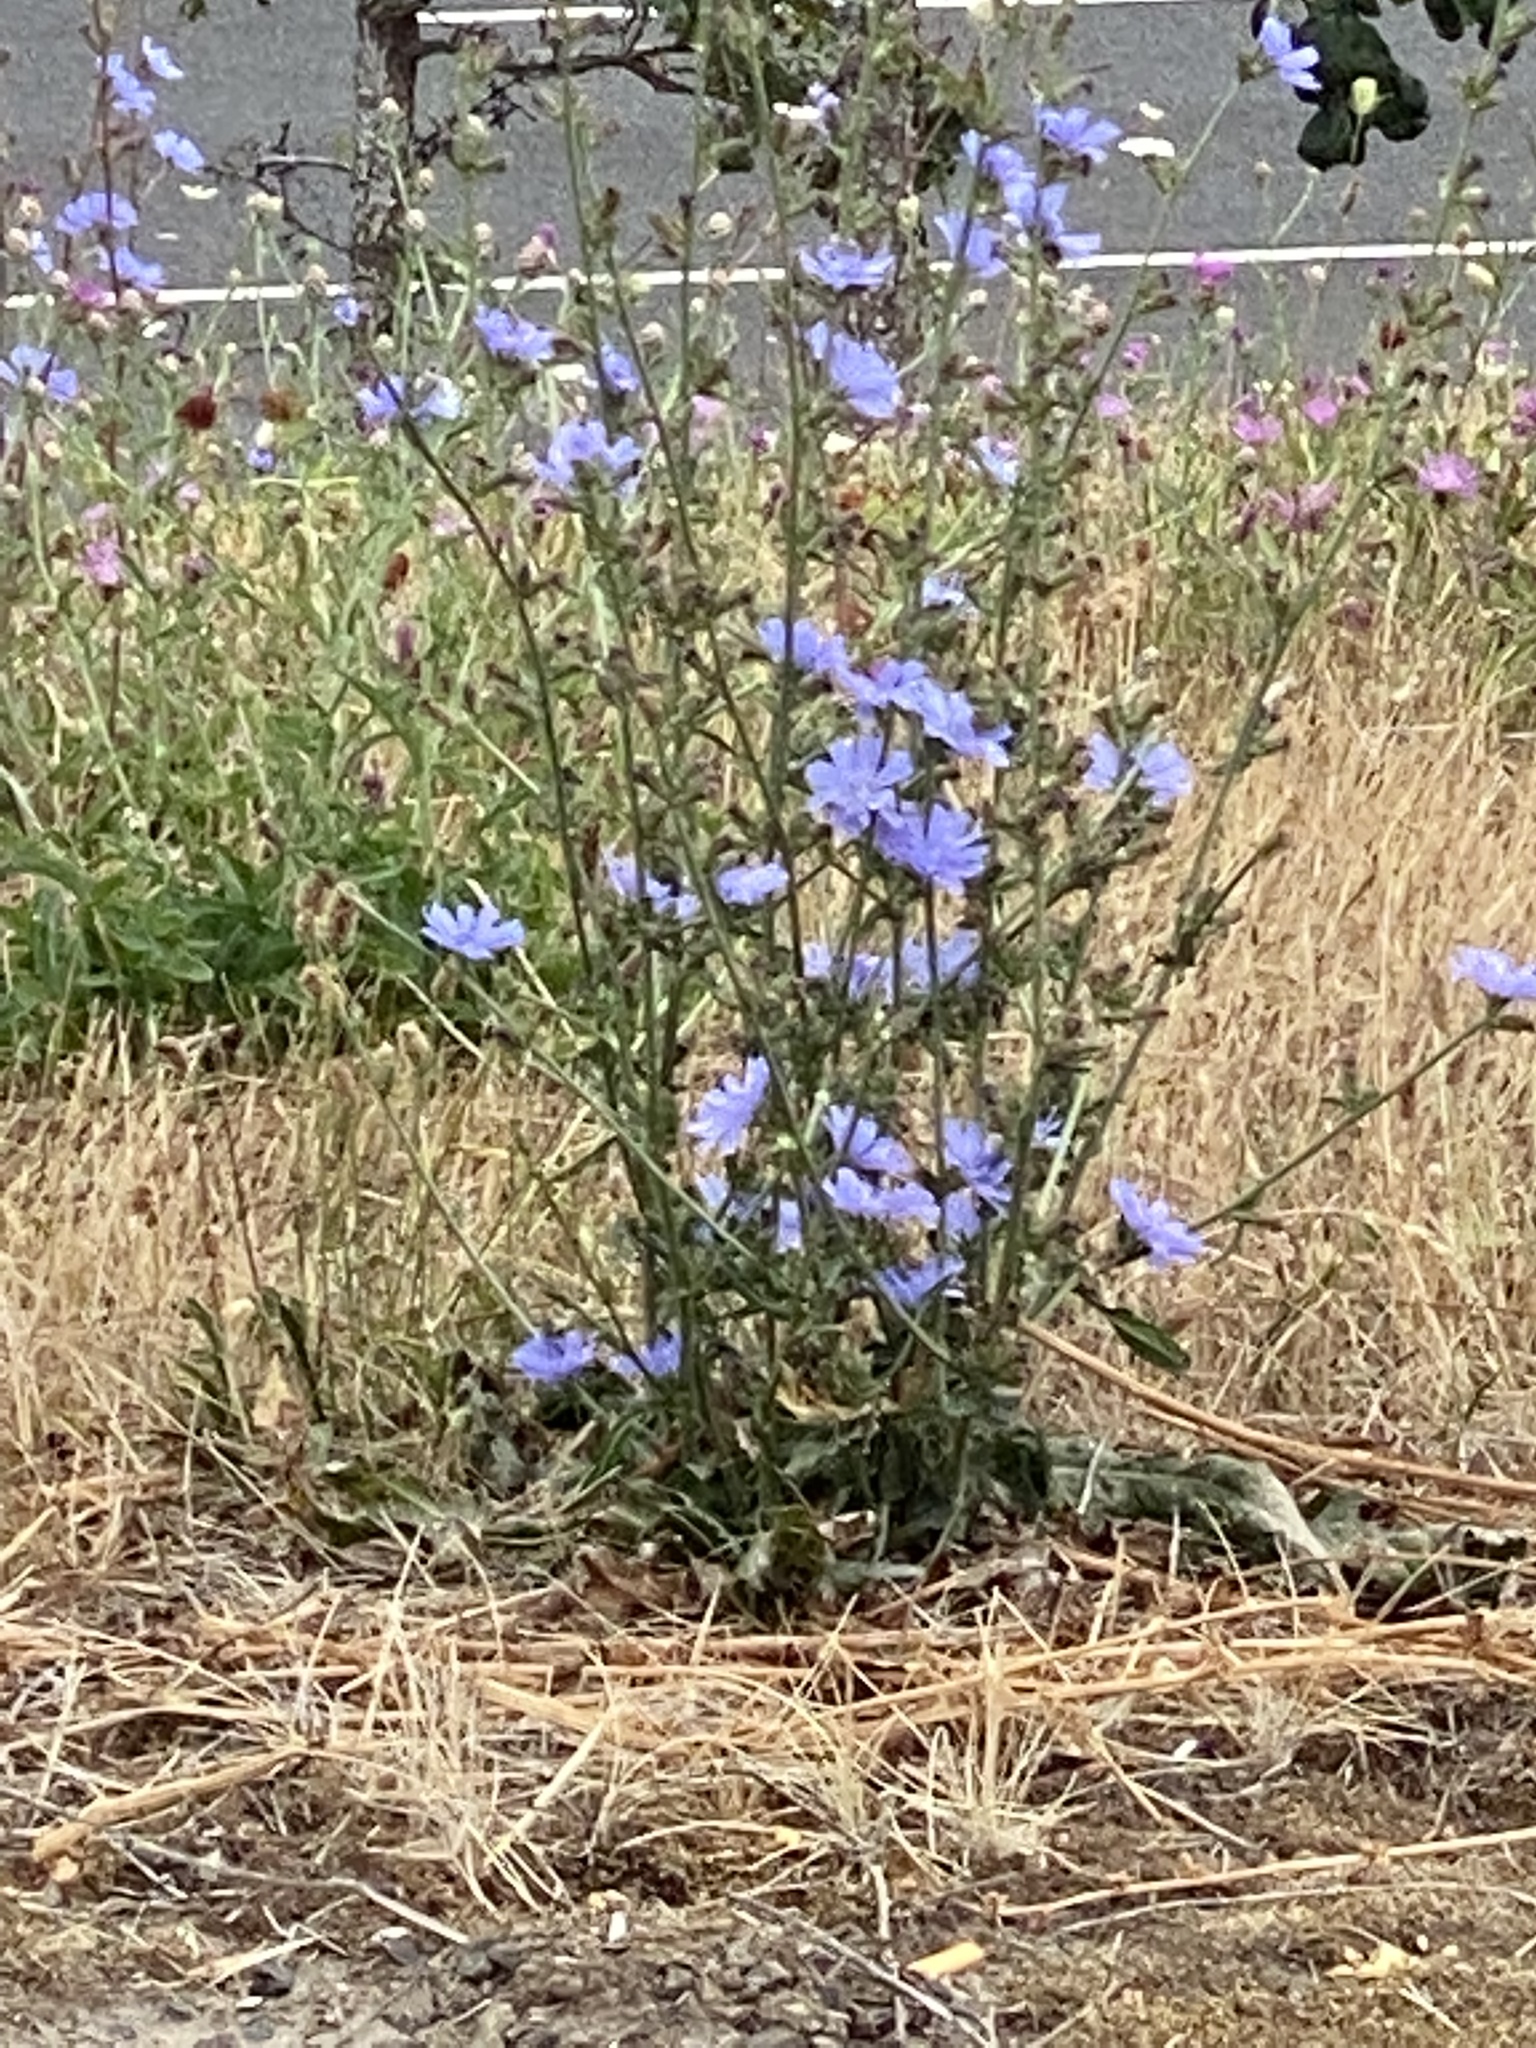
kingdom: Plantae
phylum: Tracheophyta
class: Magnoliopsida
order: Asterales
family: Asteraceae
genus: Cichorium
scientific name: Cichorium intybus
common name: Chicory
